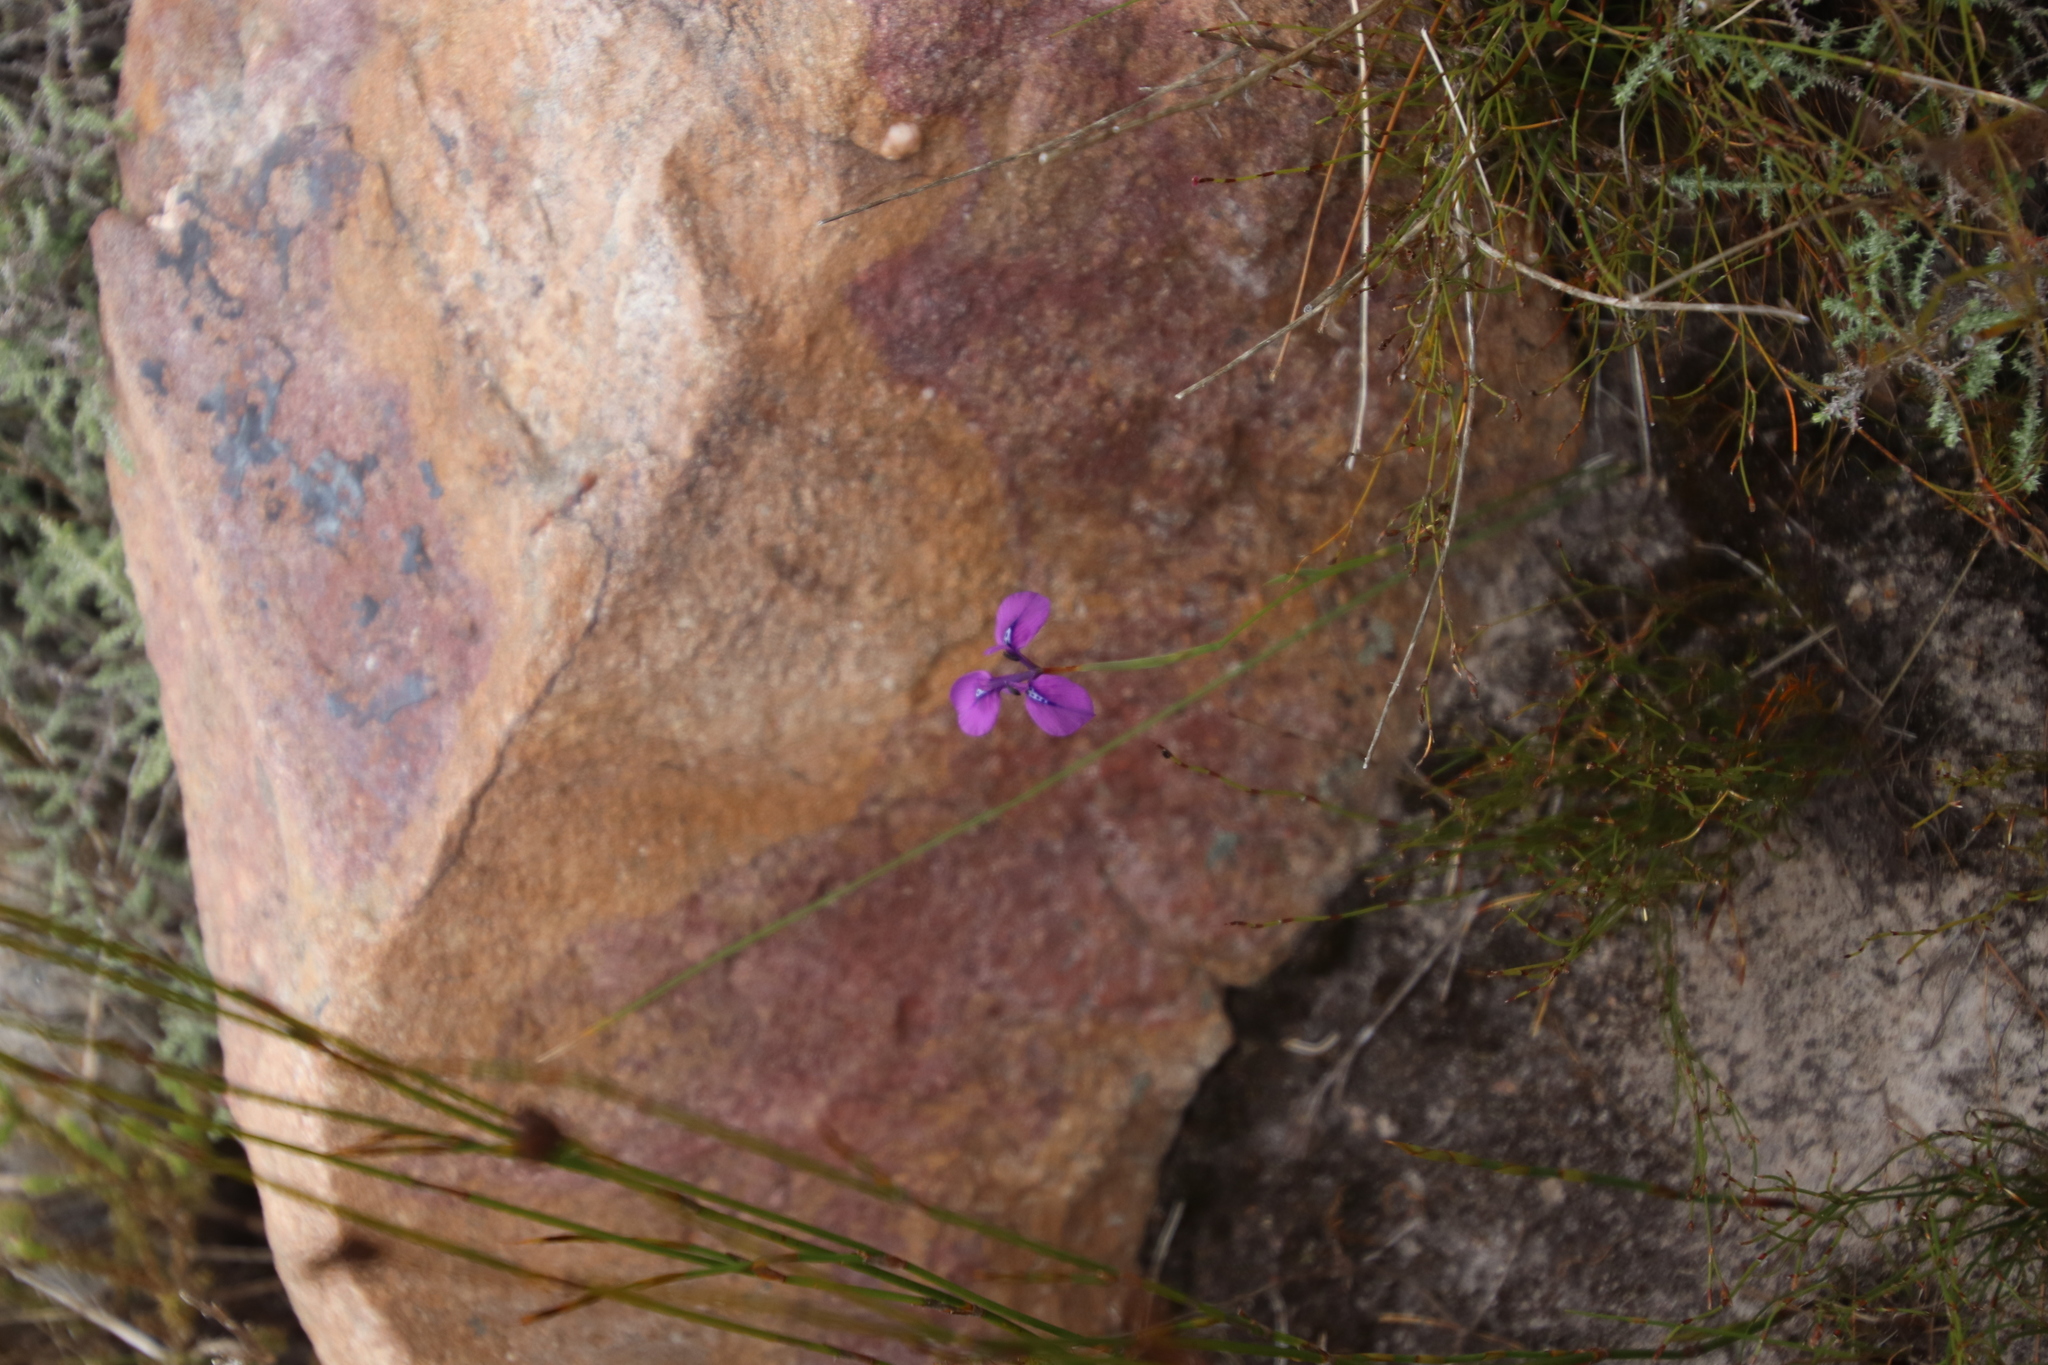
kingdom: Plantae
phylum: Tracheophyta
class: Liliopsida
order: Asparagales
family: Iridaceae
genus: Moraea
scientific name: Moraea tripetala
